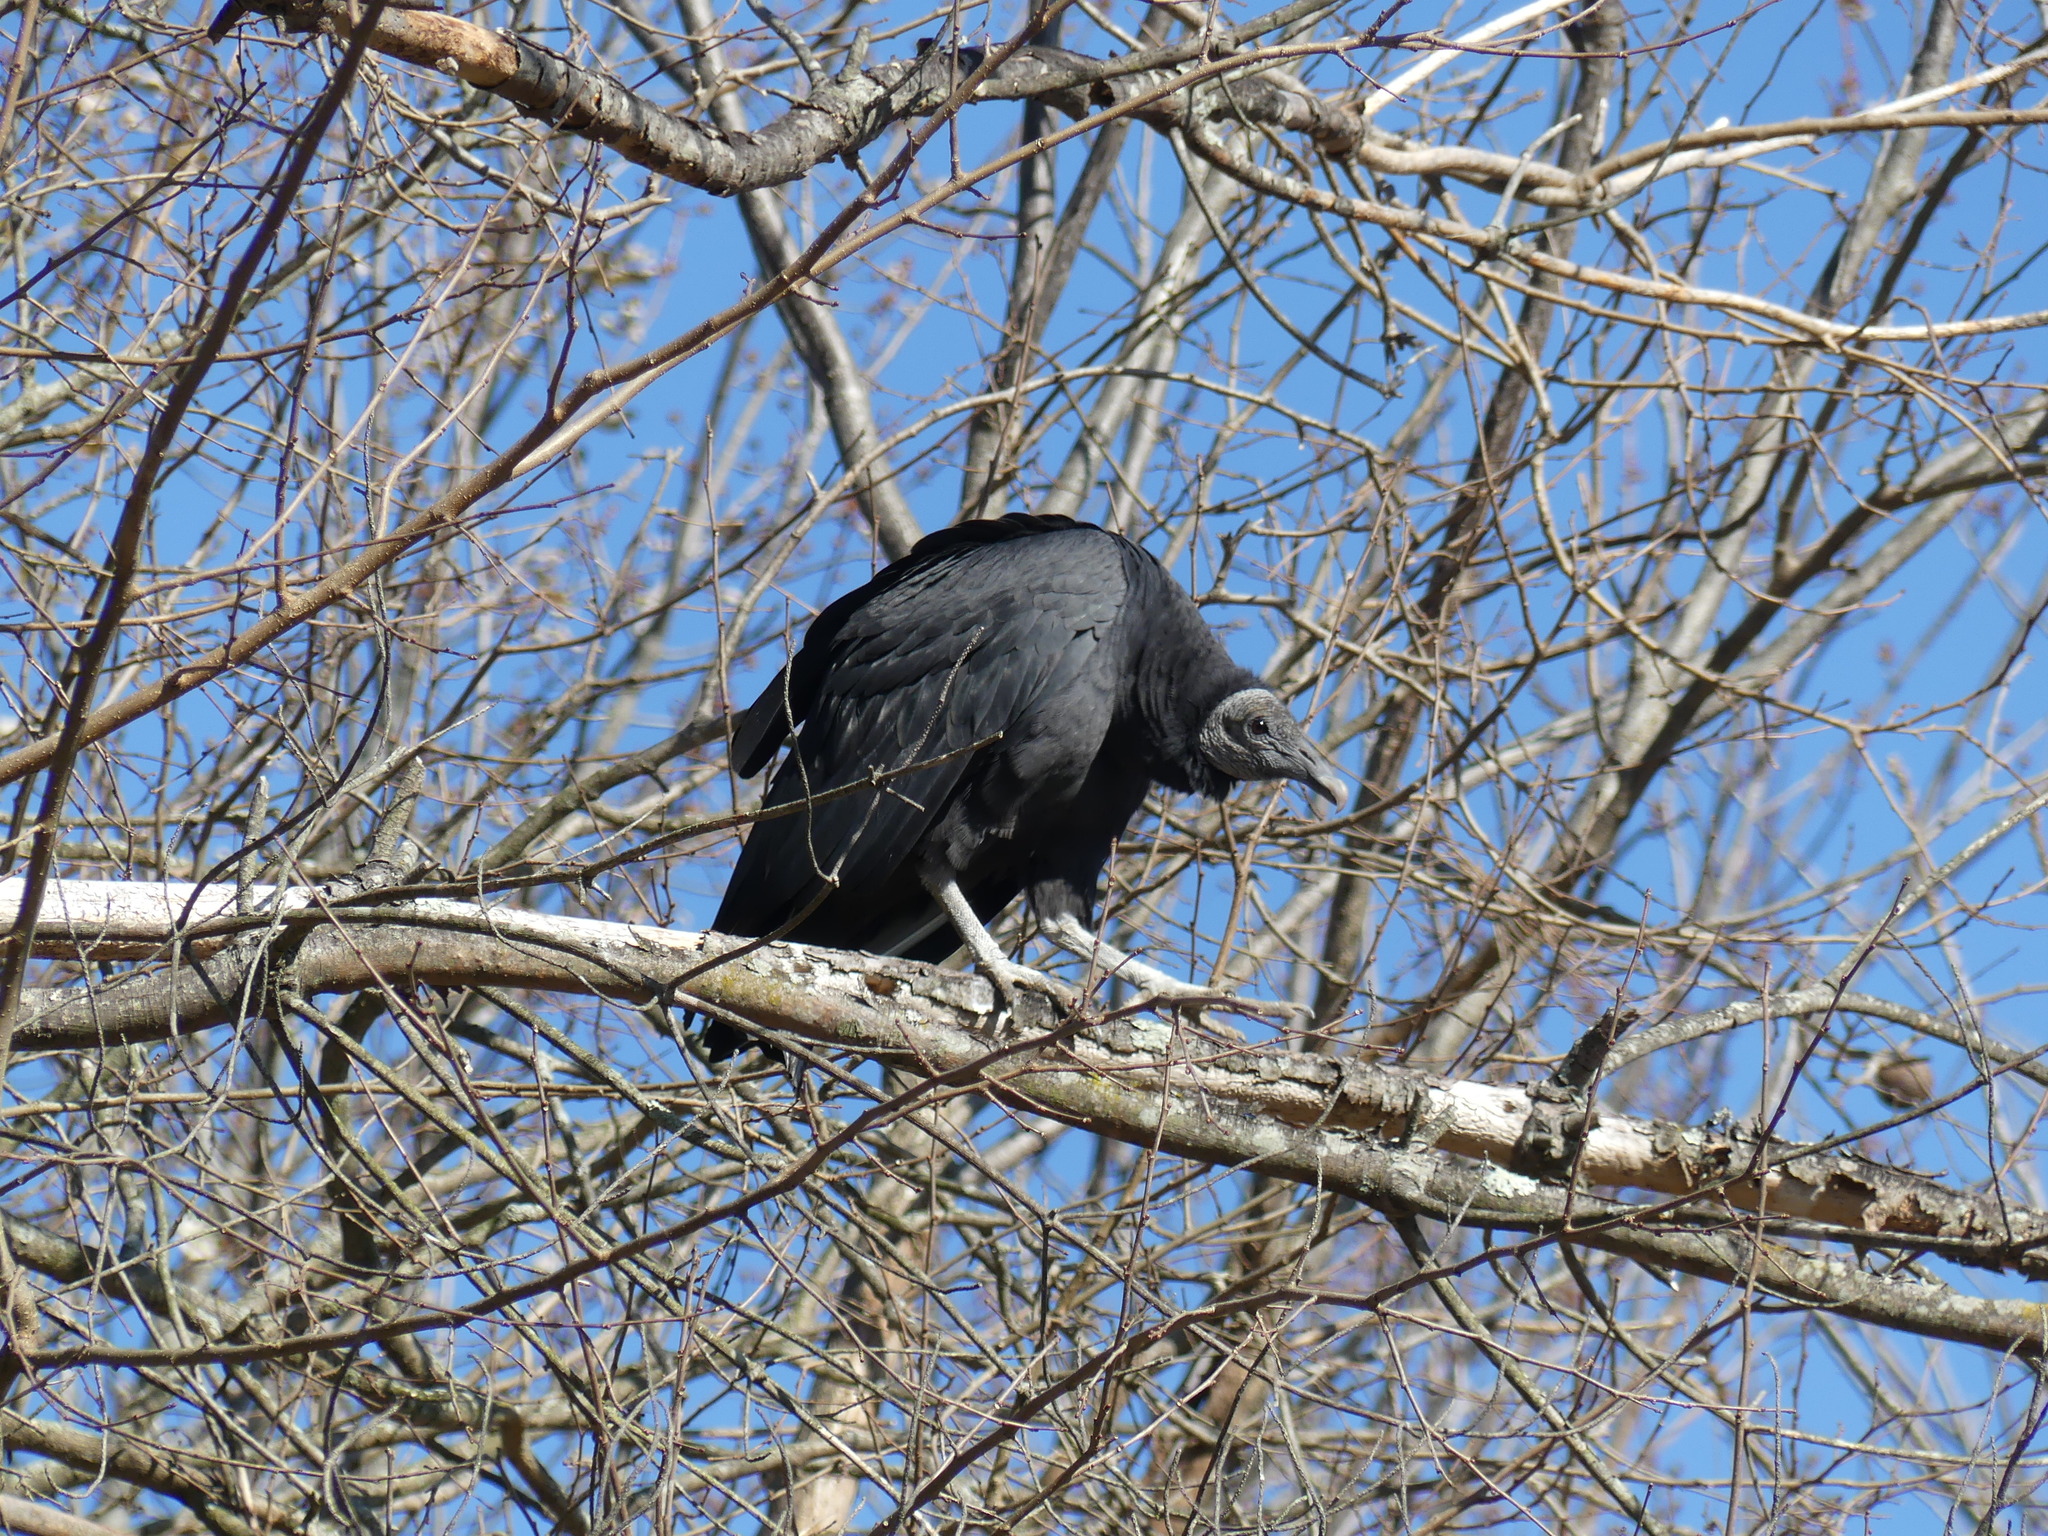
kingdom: Animalia
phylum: Chordata
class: Aves
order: Accipitriformes
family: Cathartidae
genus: Coragyps
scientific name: Coragyps atratus
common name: Black vulture
